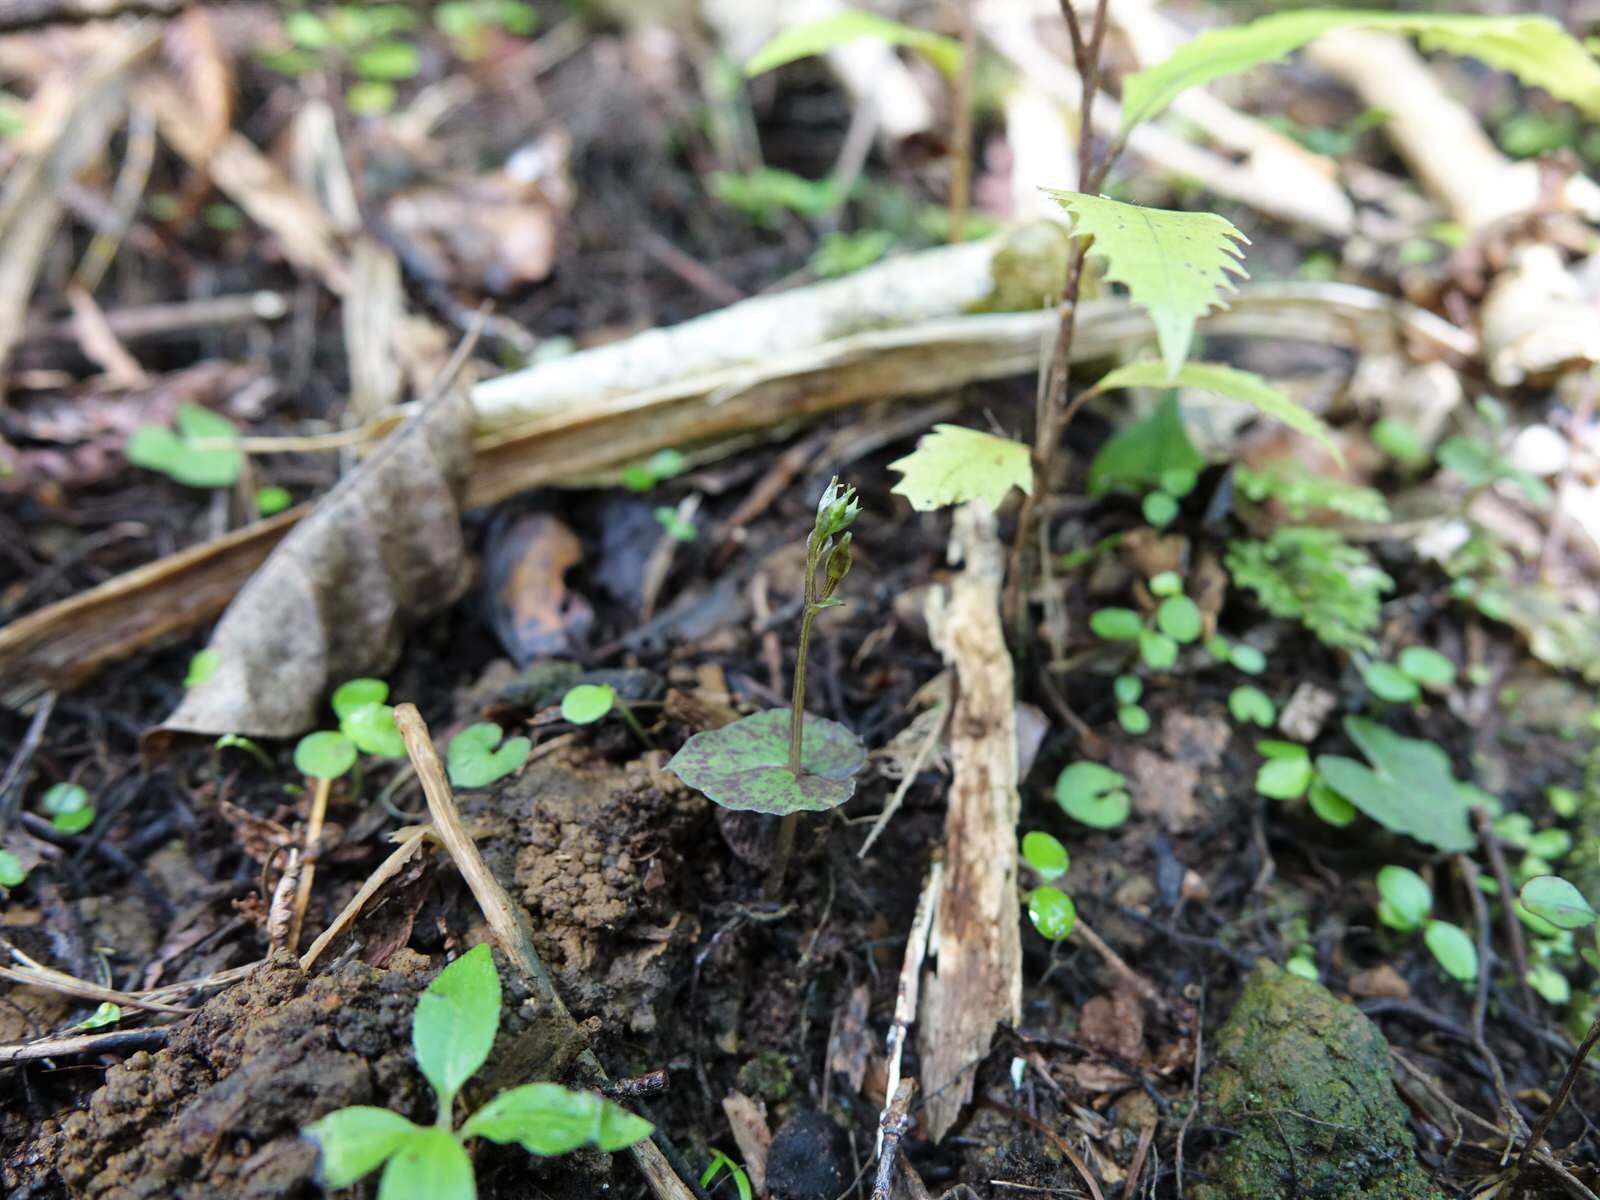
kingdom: Plantae
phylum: Tracheophyta
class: Liliopsida
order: Asparagales
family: Orchidaceae
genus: Acianthus
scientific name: Acianthus sinclairii
